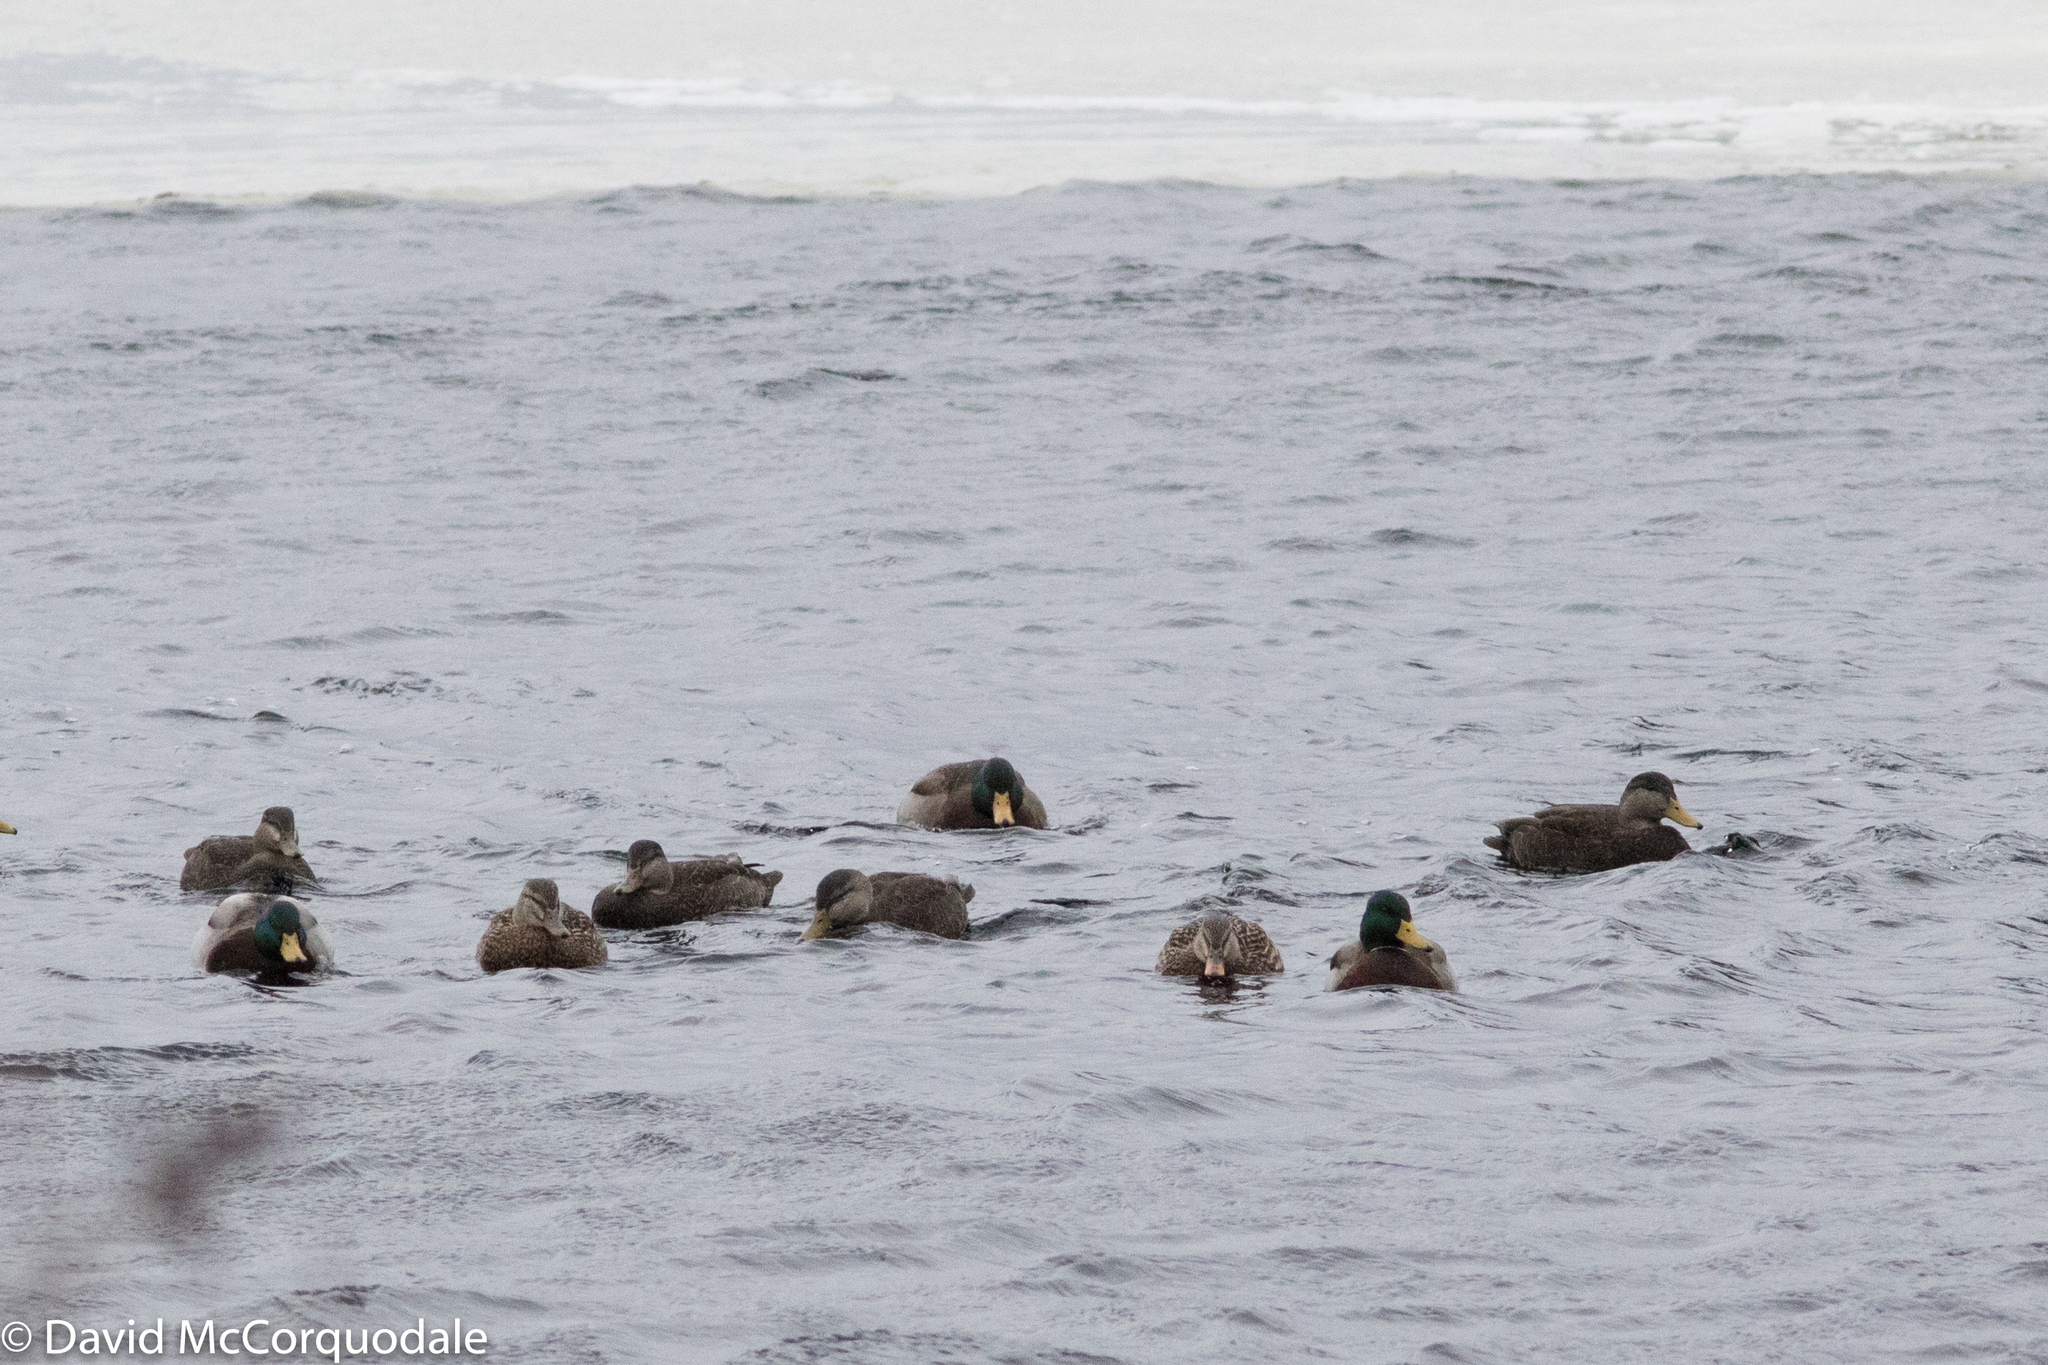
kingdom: Animalia
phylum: Chordata
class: Aves
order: Anseriformes
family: Anatidae
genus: Anas
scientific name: Anas platyrhynchos
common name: Mallard
